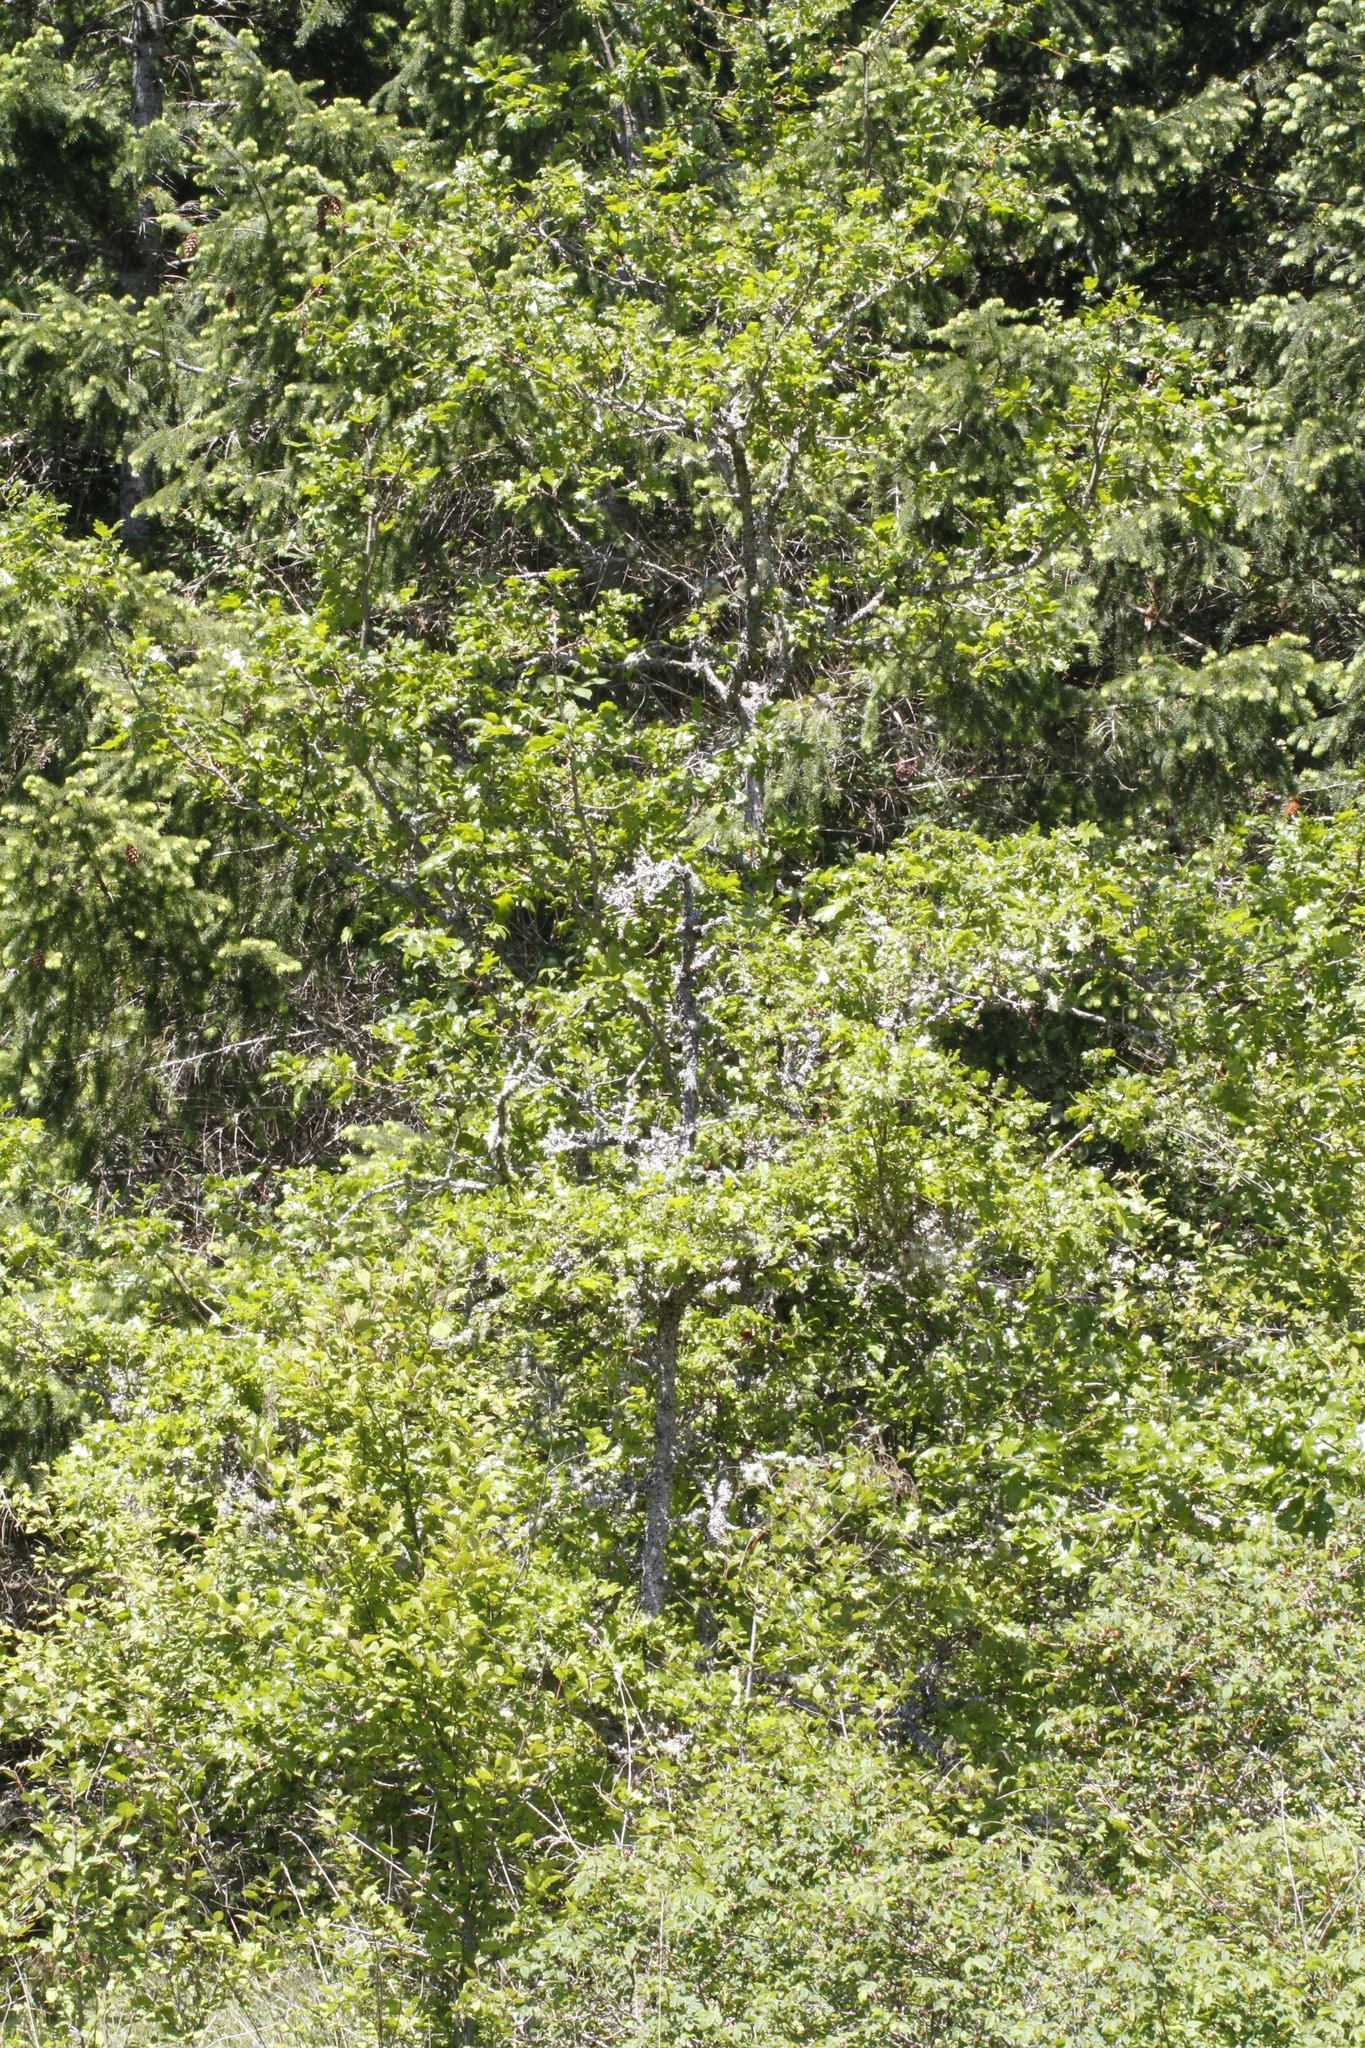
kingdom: Plantae
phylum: Tracheophyta
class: Magnoliopsida
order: Fagales
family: Fagaceae
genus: Quercus
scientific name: Quercus garryana
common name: Garry oak
